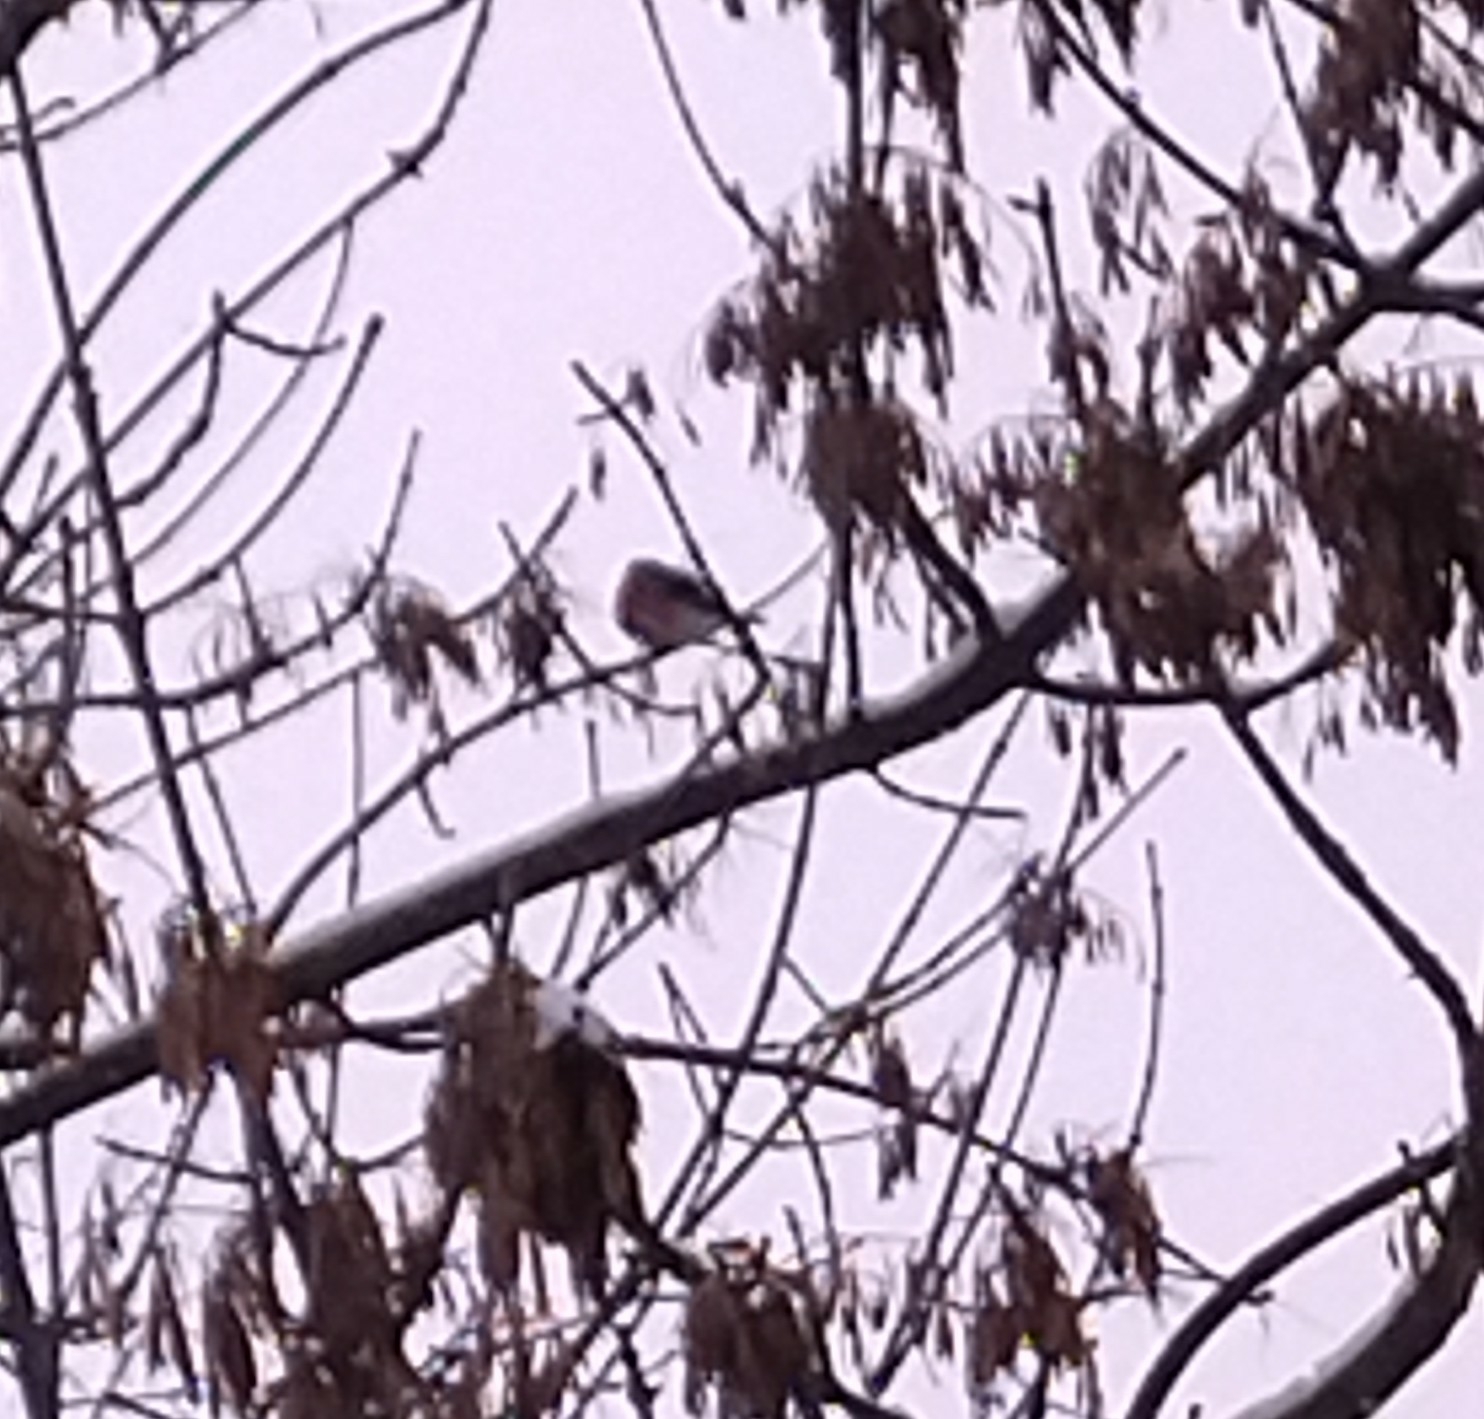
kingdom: Animalia
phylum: Chordata
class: Aves
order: Passeriformes
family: Fringillidae
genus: Pyrrhula
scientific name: Pyrrhula pyrrhula
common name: Eurasian bullfinch
